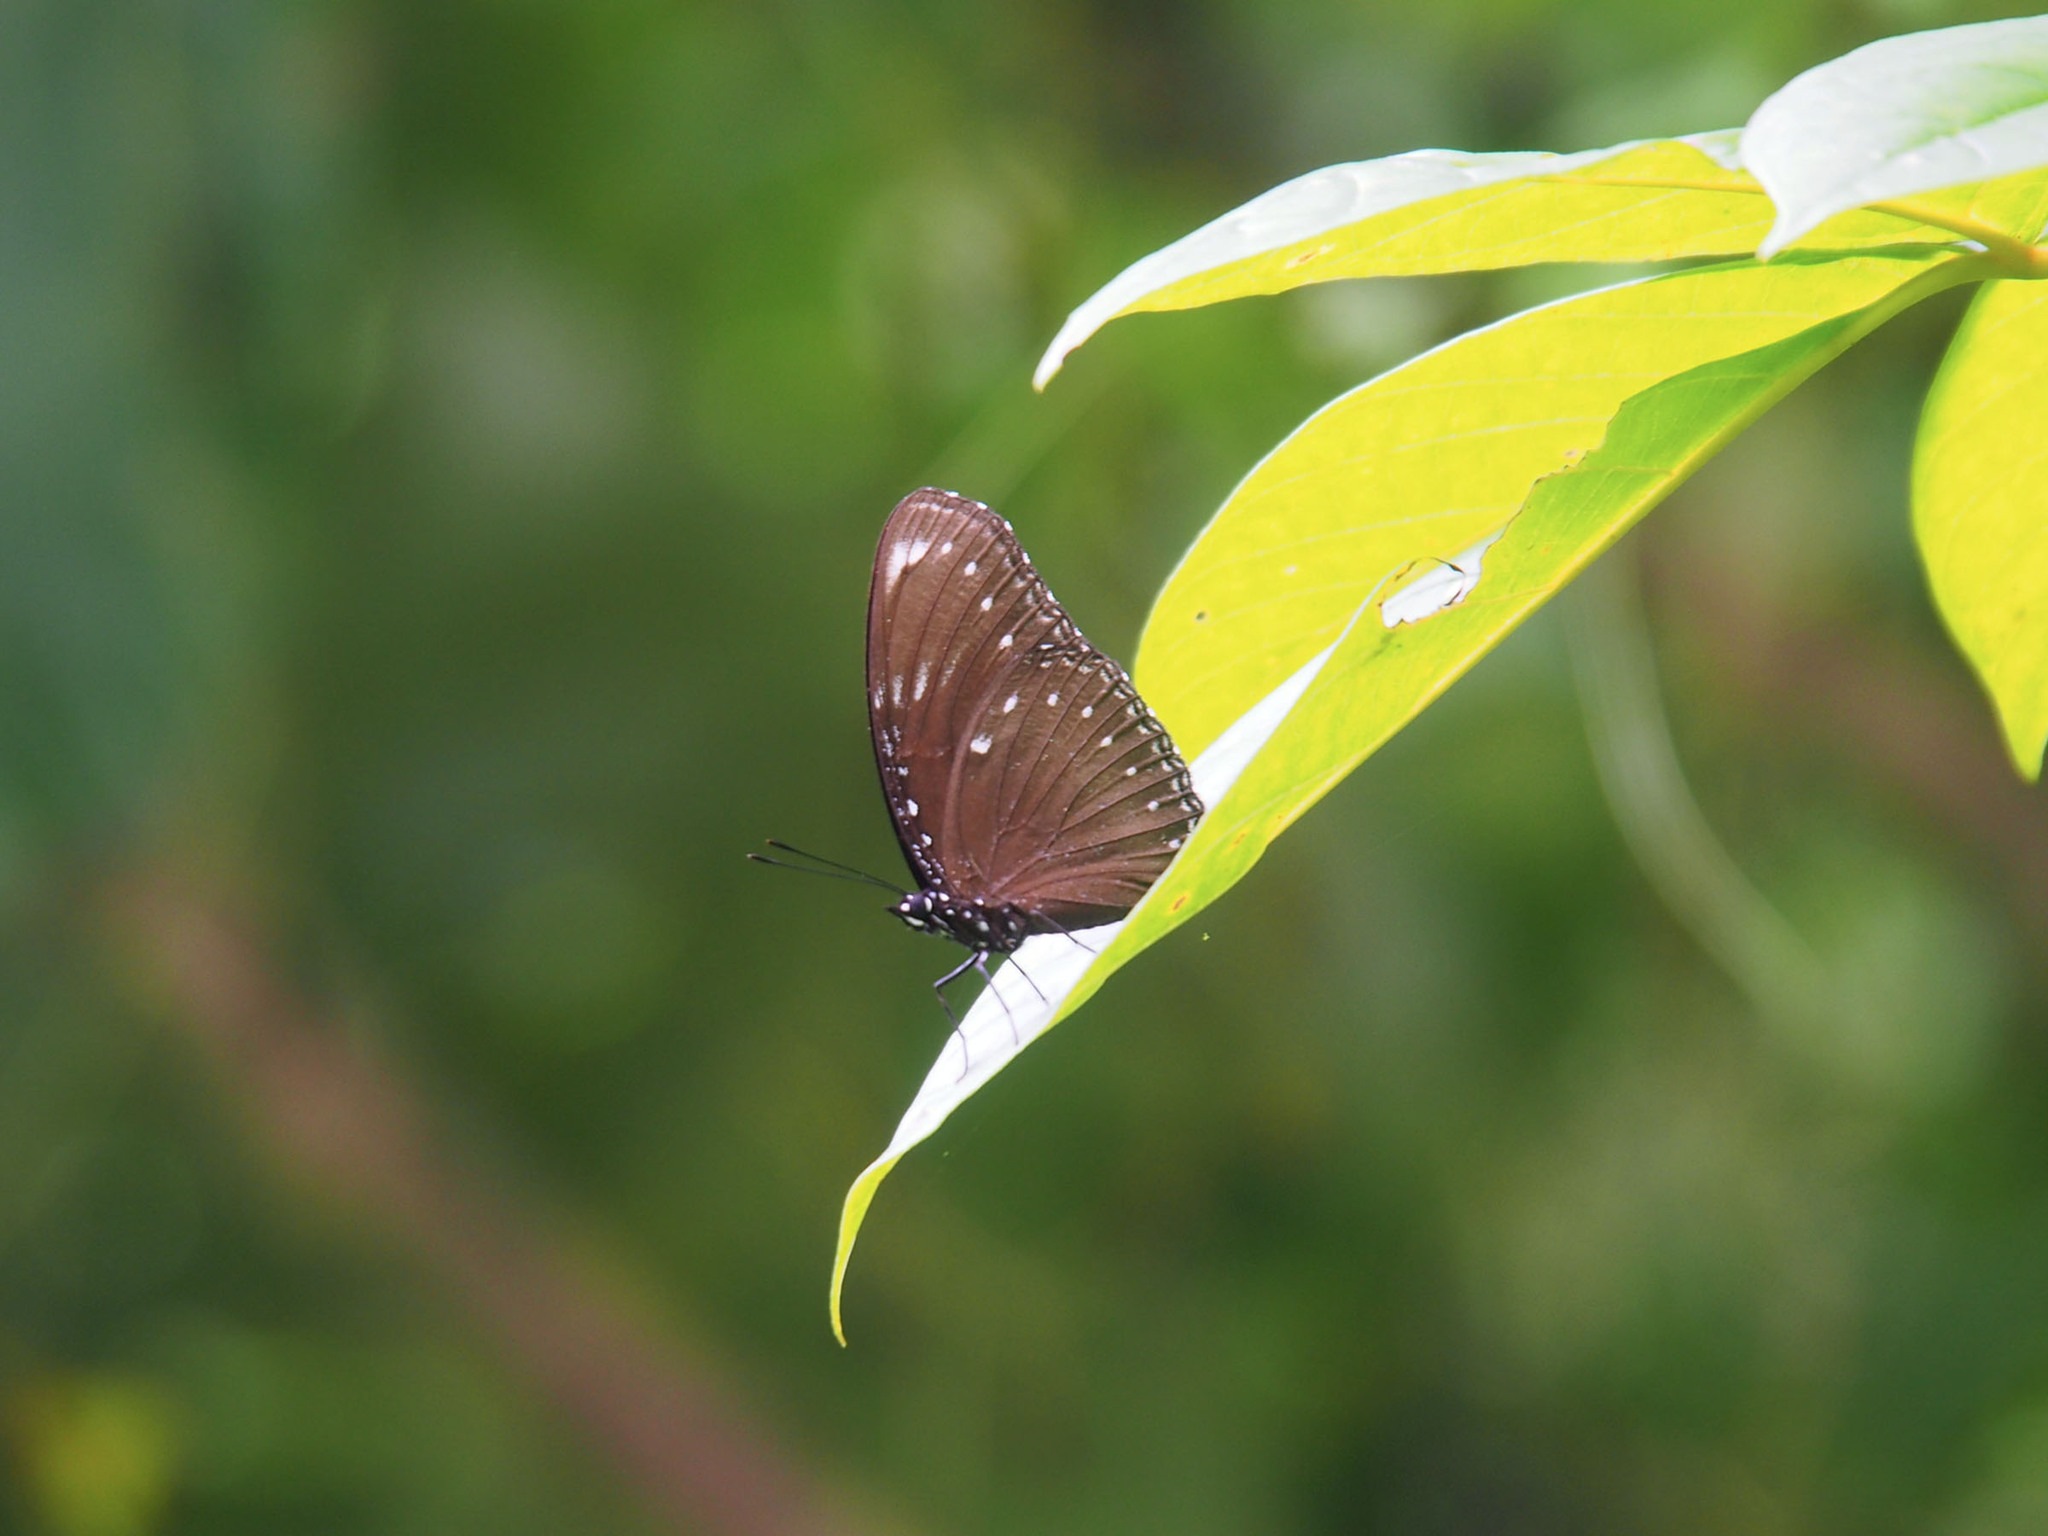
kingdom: Animalia
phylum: Arthropoda
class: Insecta
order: Lepidoptera
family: Nymphalidae
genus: Hypolimnas
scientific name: Hypolimnas anomala
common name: Malayan eggfly
